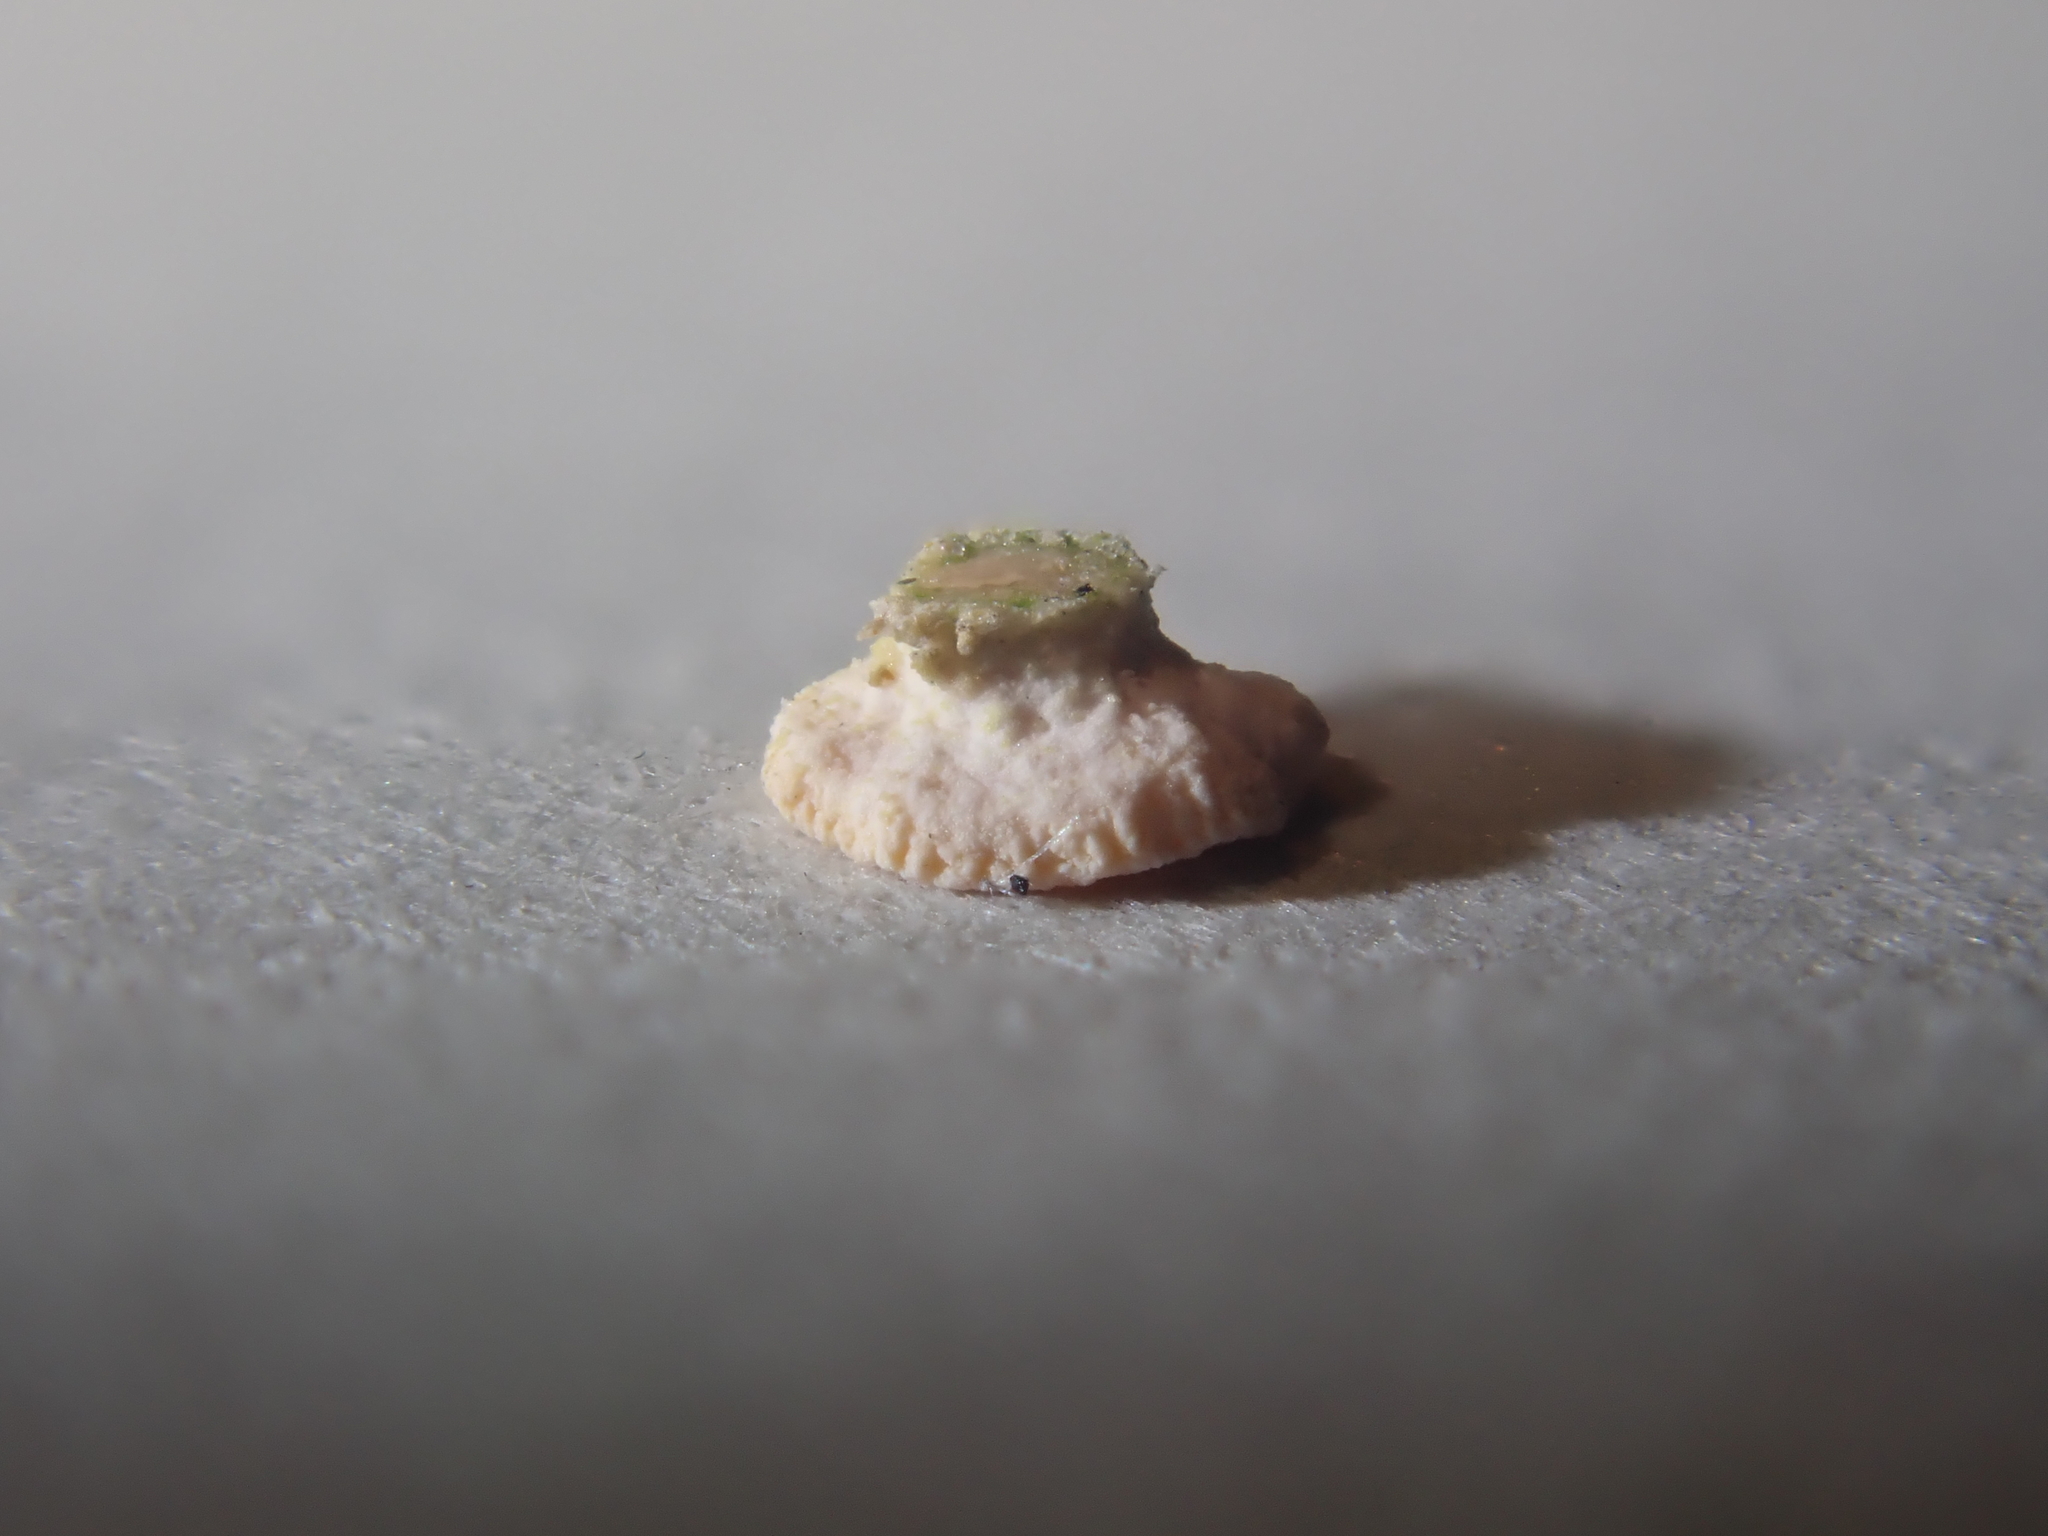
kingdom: Fungi
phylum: Ascomycota
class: Lecanoromycetes
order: Pertusariales
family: Icmadophilaceae
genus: Dibaeis
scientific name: Dibaeis absoluta
